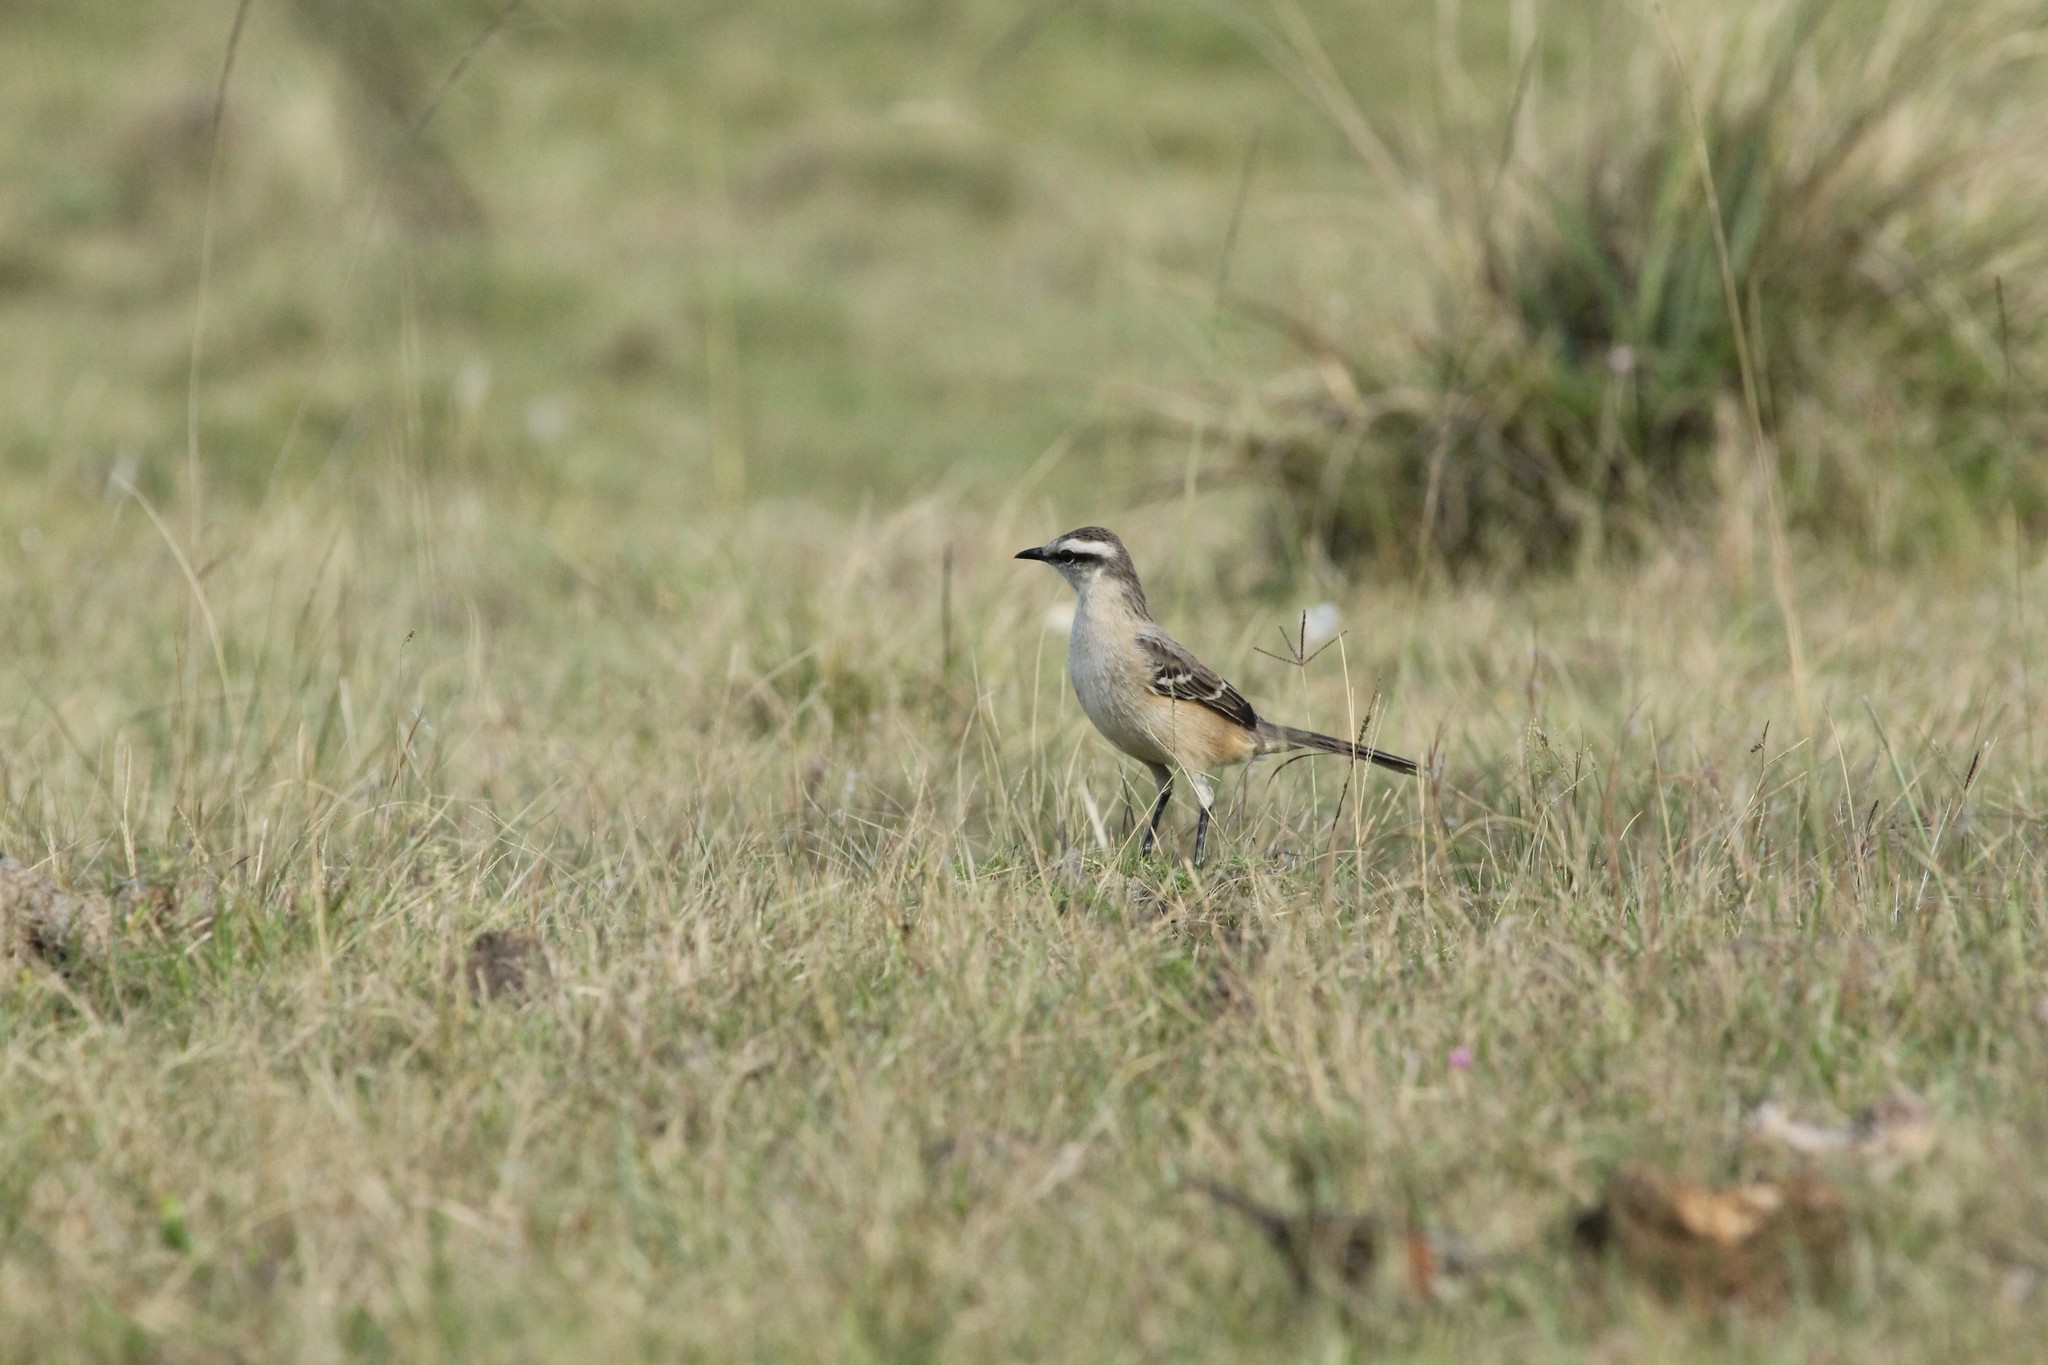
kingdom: Animalia
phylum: Chordata
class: Aves
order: Passeriformes
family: Mimidae
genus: Mimus
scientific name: Mimus saturninus
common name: Chalk-browed mockingbird
